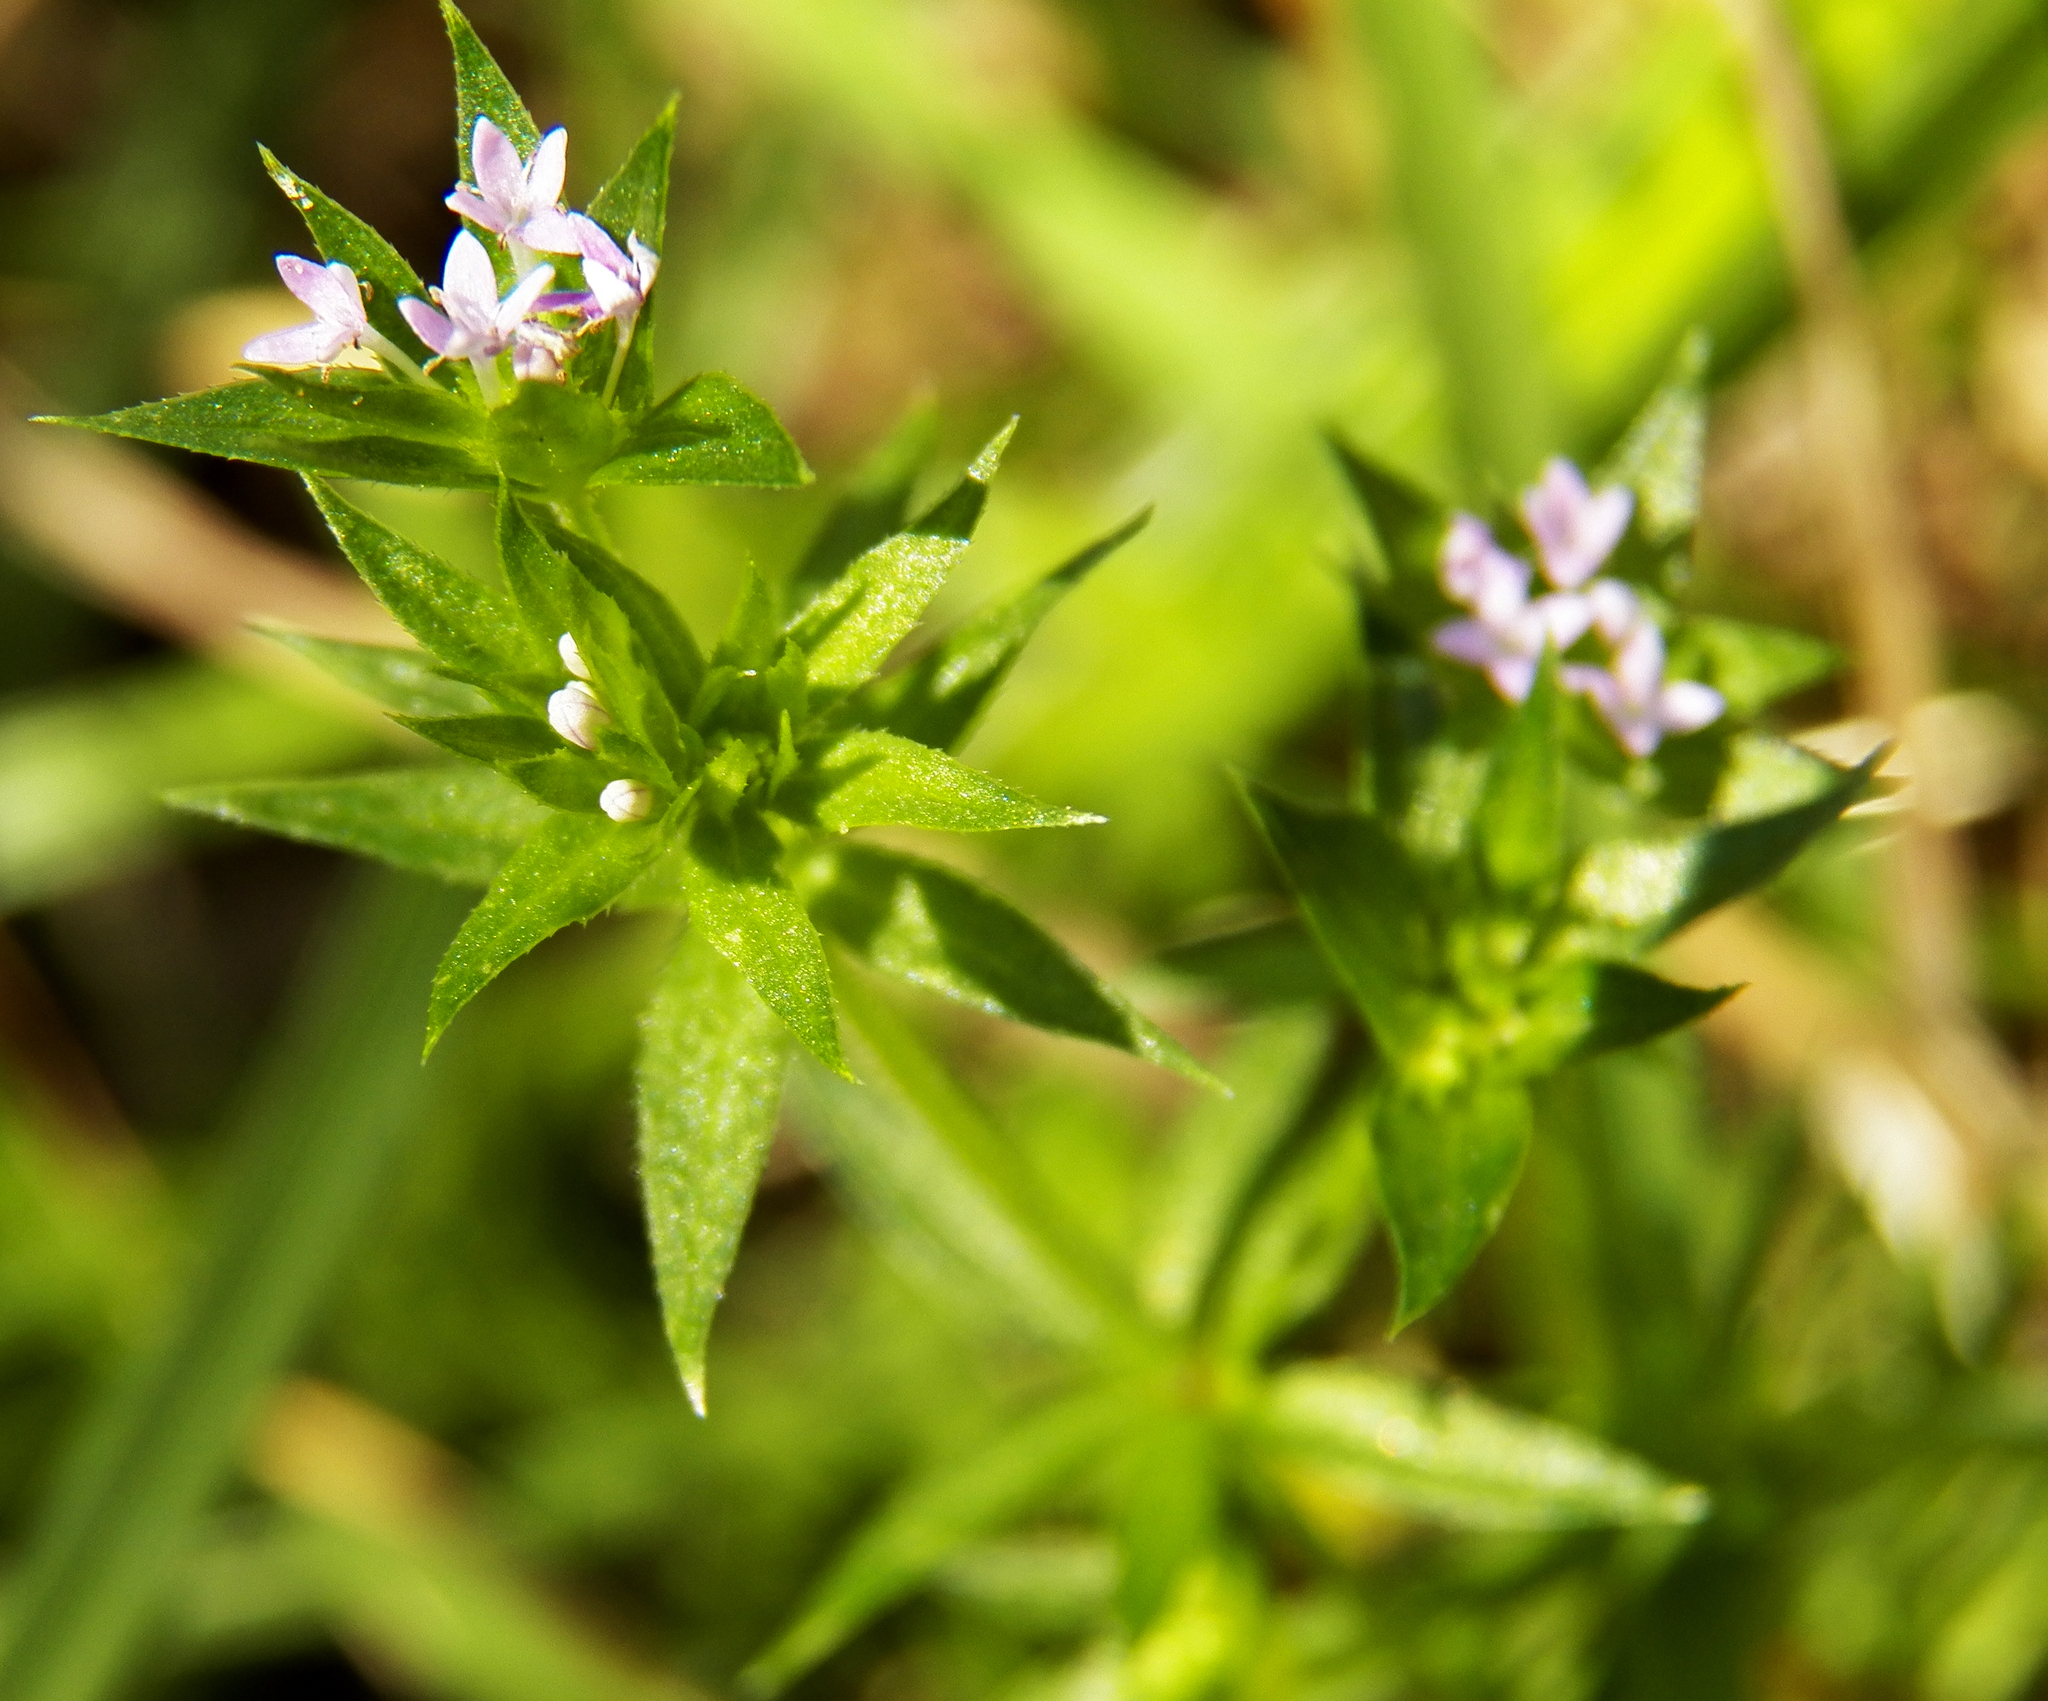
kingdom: Plantae
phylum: Tracheophyta
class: Magnoliopsida
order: Gentianales
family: Rubiaceae
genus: Sherardia
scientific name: Sherardia arvensis
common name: Field madder
